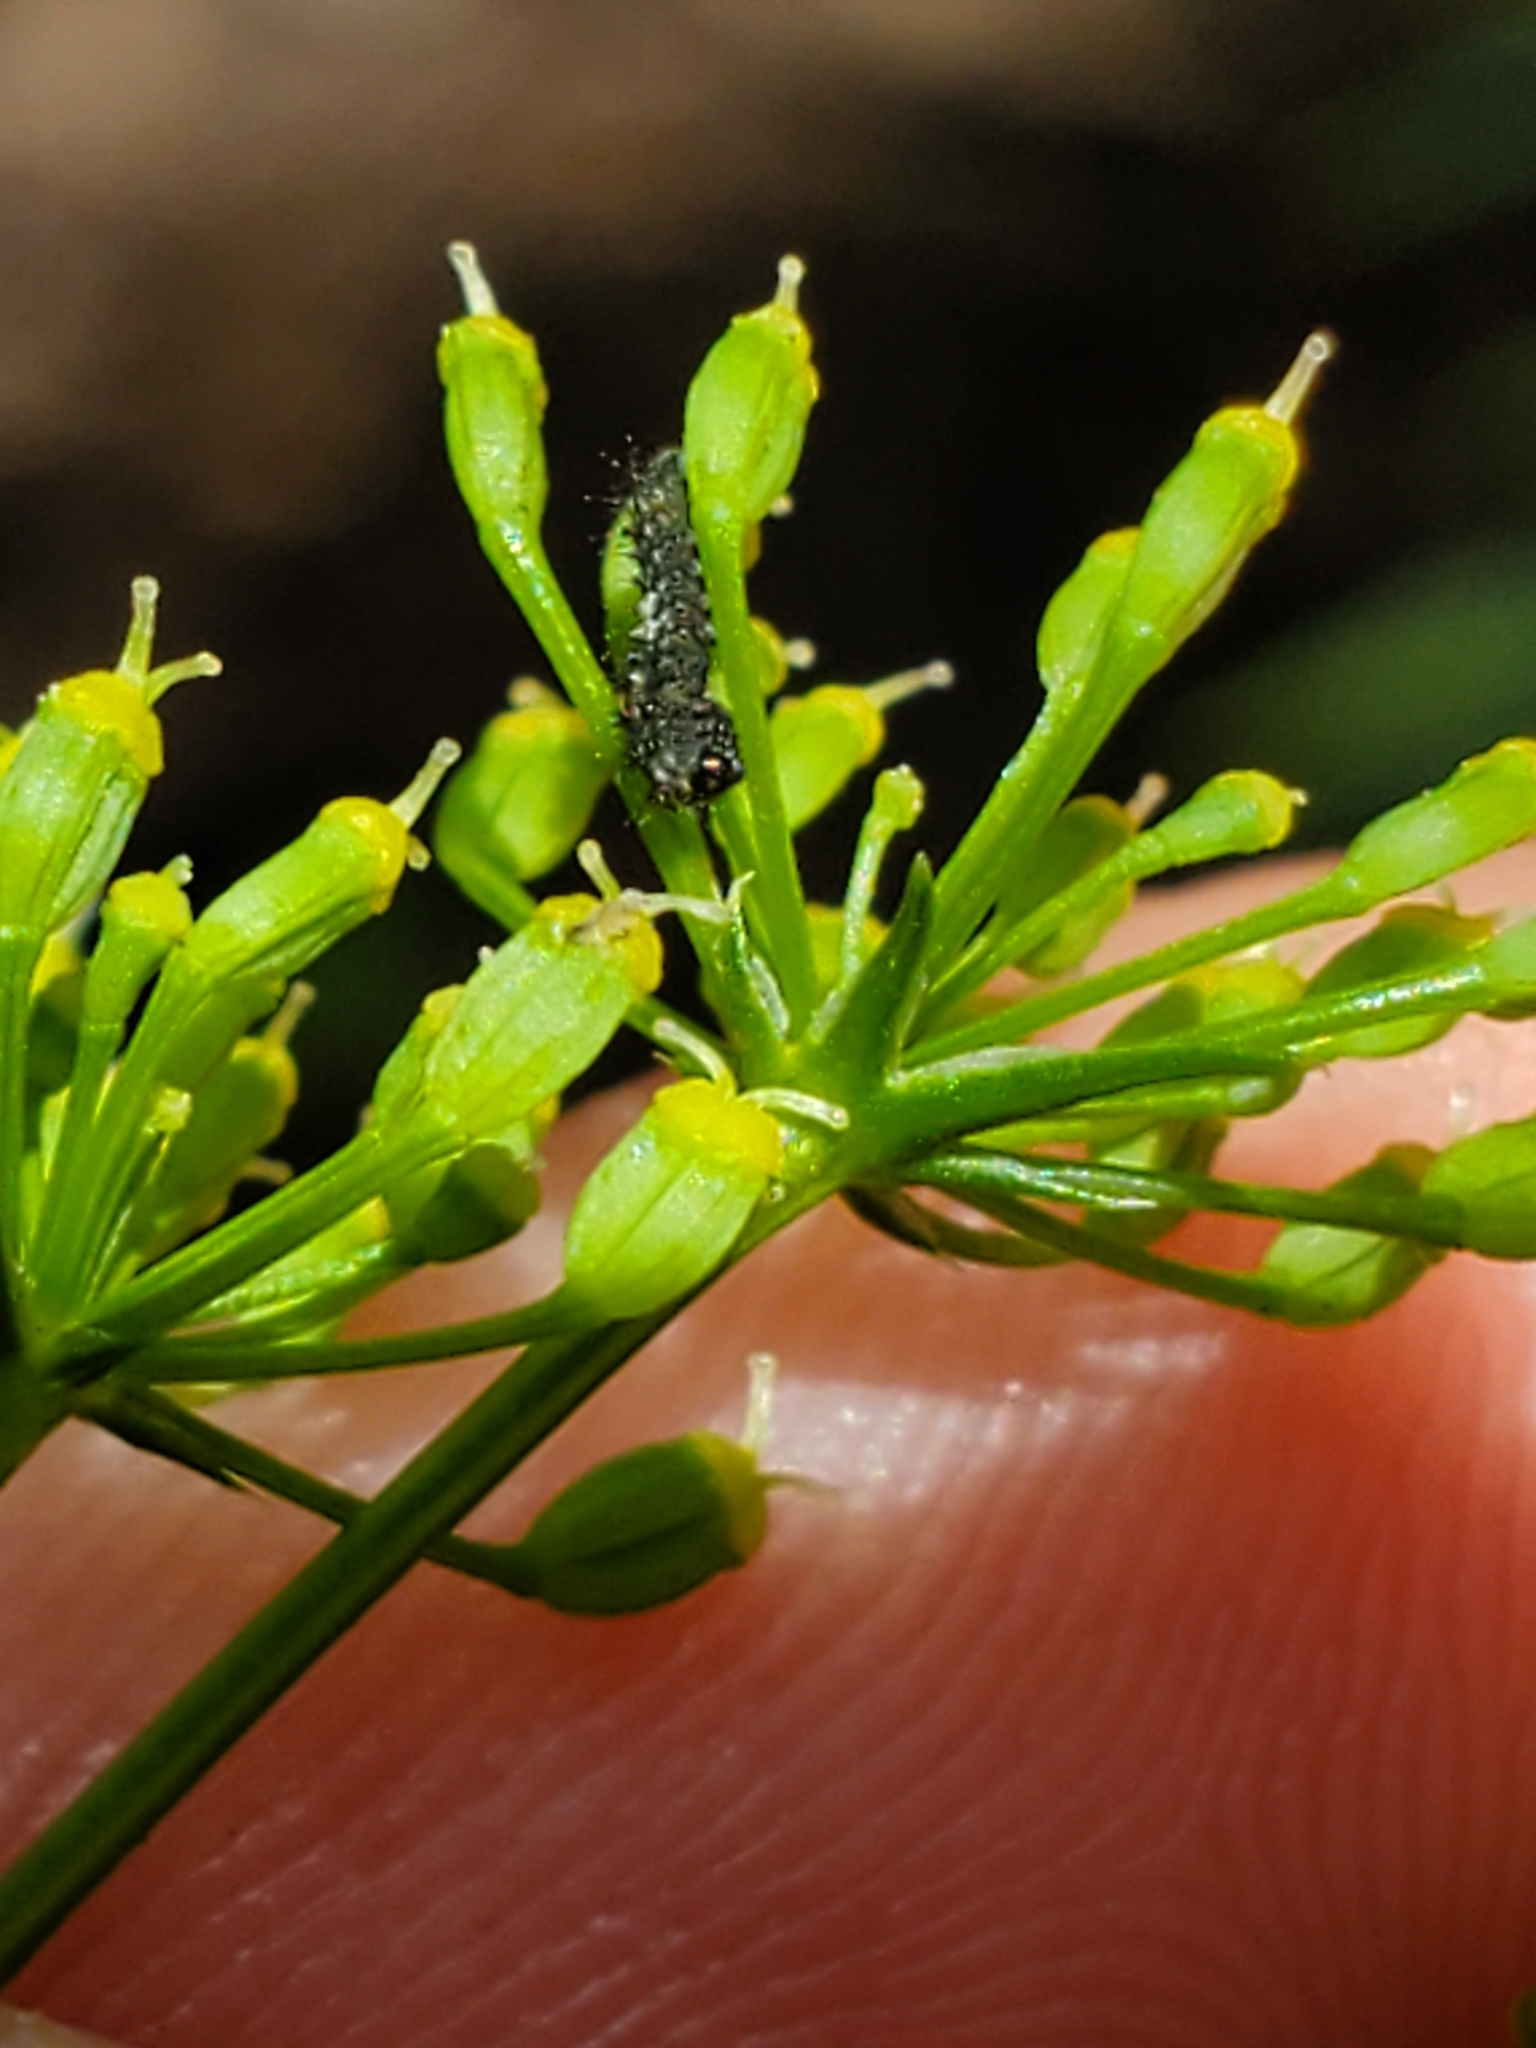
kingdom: Animalia
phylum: Arthropoda
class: Insecta
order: Lepidoptera
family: Papilionidae
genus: Papilio
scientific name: Papilio polyxenes
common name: Black swallowtail
